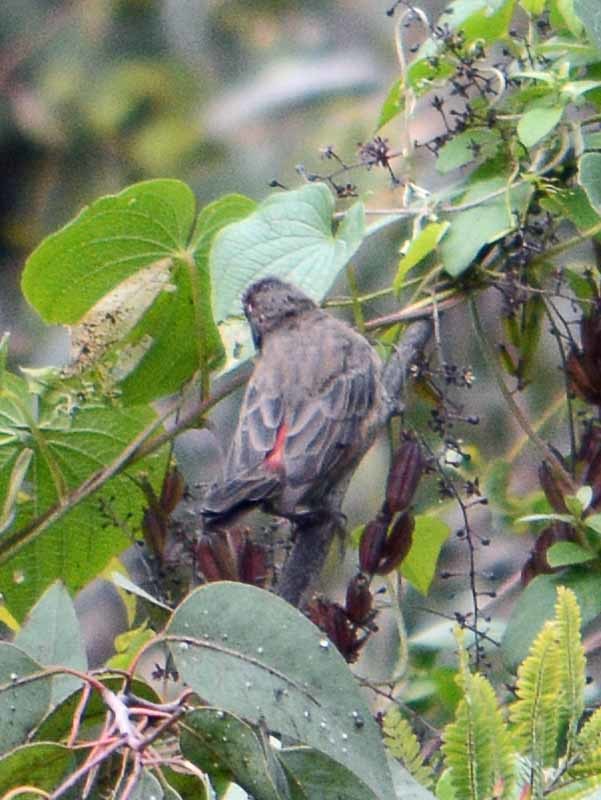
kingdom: Animalia
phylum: Chordata
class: Aves
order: Passeriformes
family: Fringillidae
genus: Haemorhous
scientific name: Haemorhous mexicanus
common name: House finch
